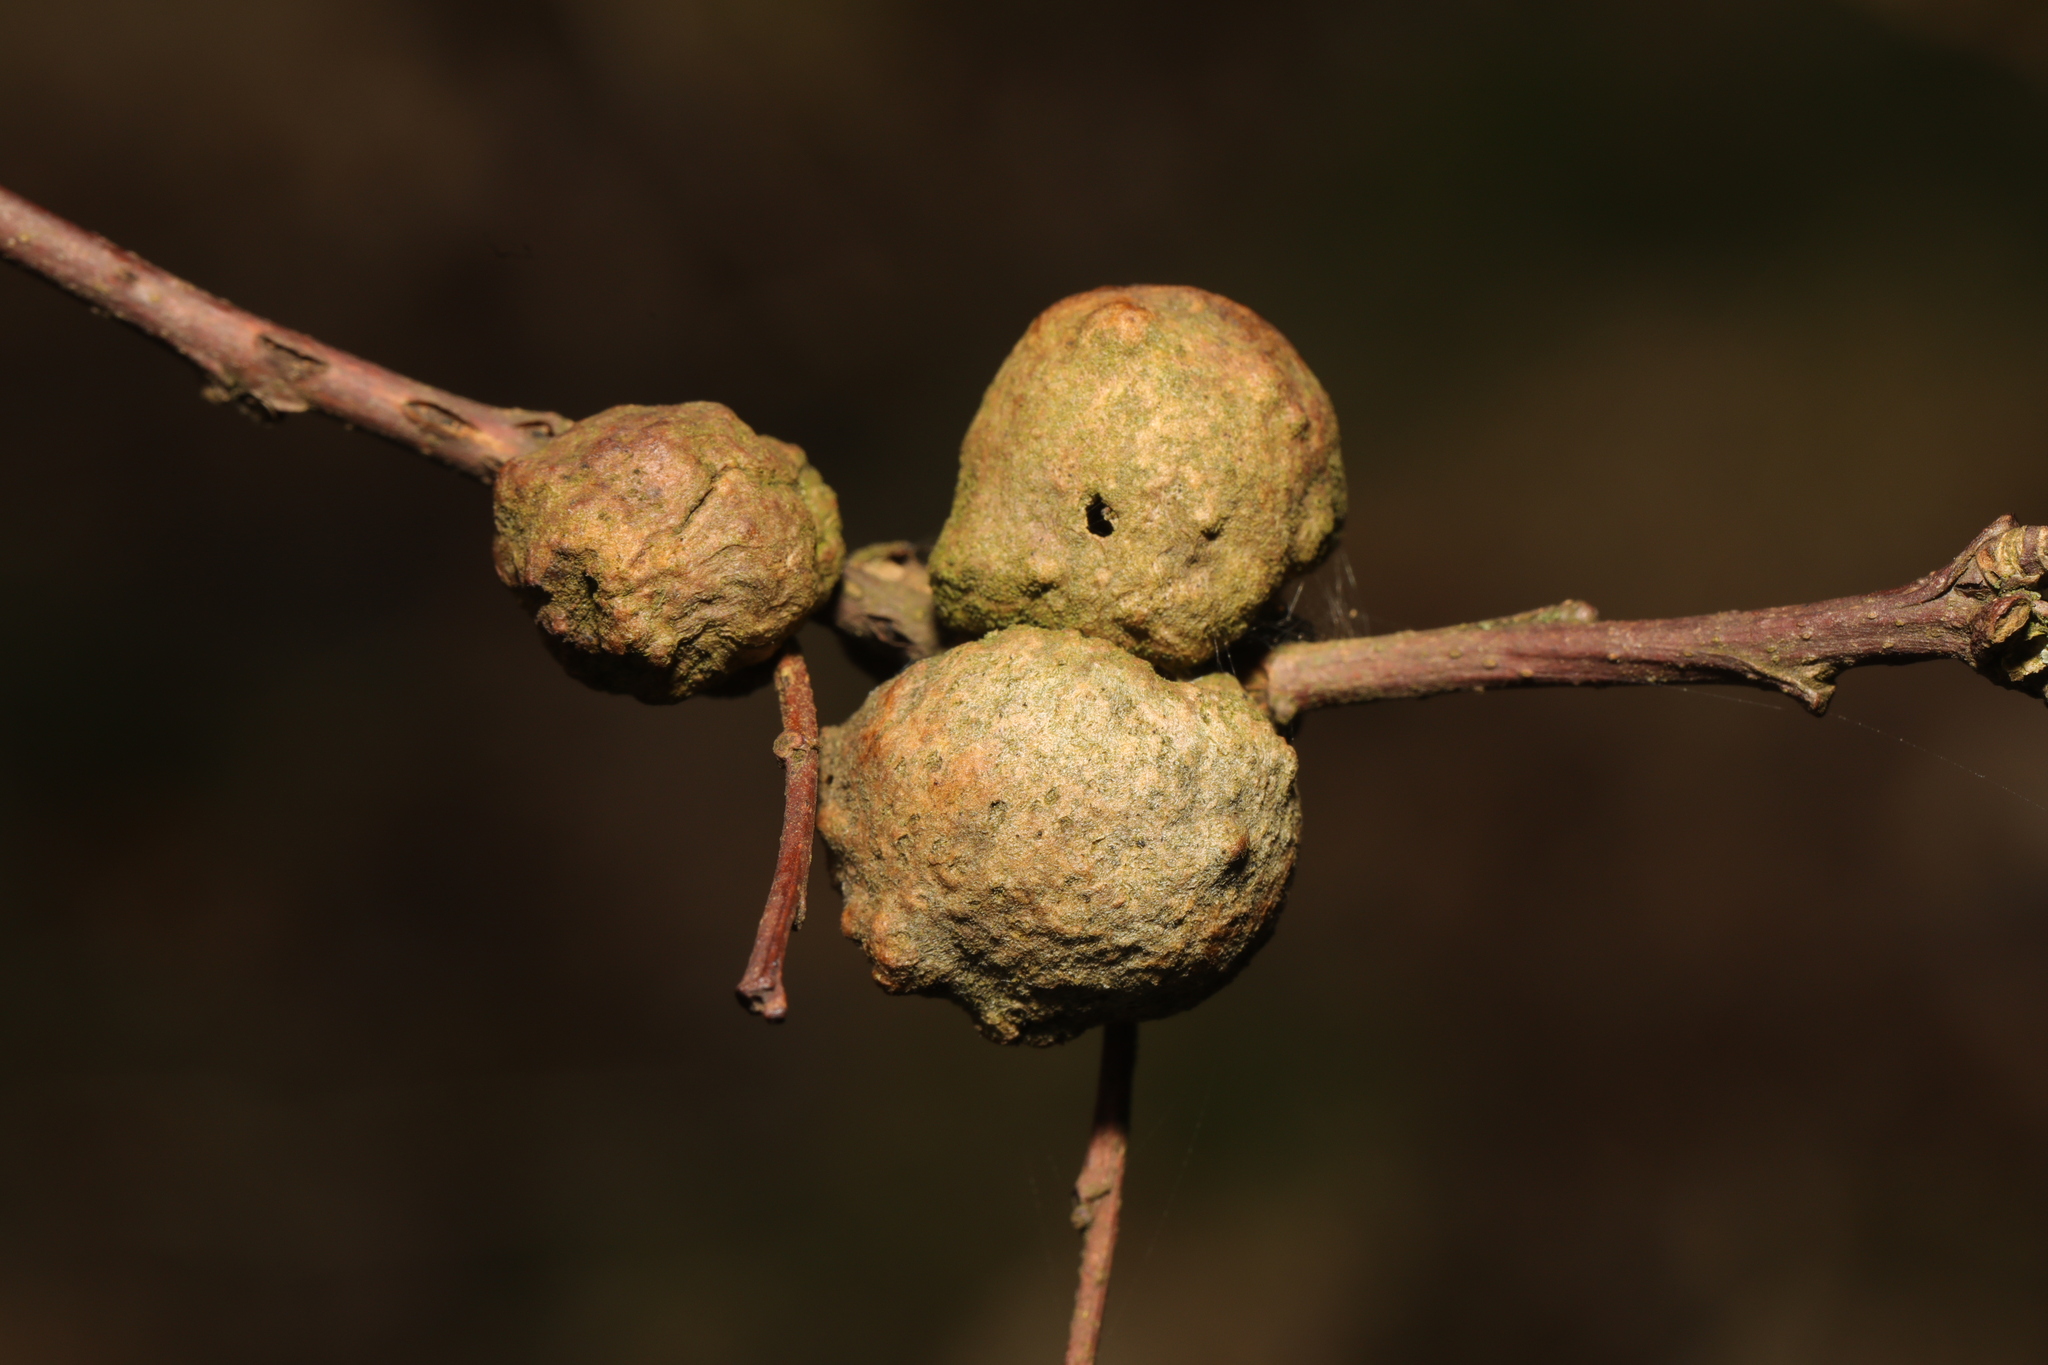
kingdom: Animalia
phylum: Arthropoda
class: Insecta
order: Hymenoptera
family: Cynipidae
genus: Andricus
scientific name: Andricus lignicolus
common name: Cola-nut gall
